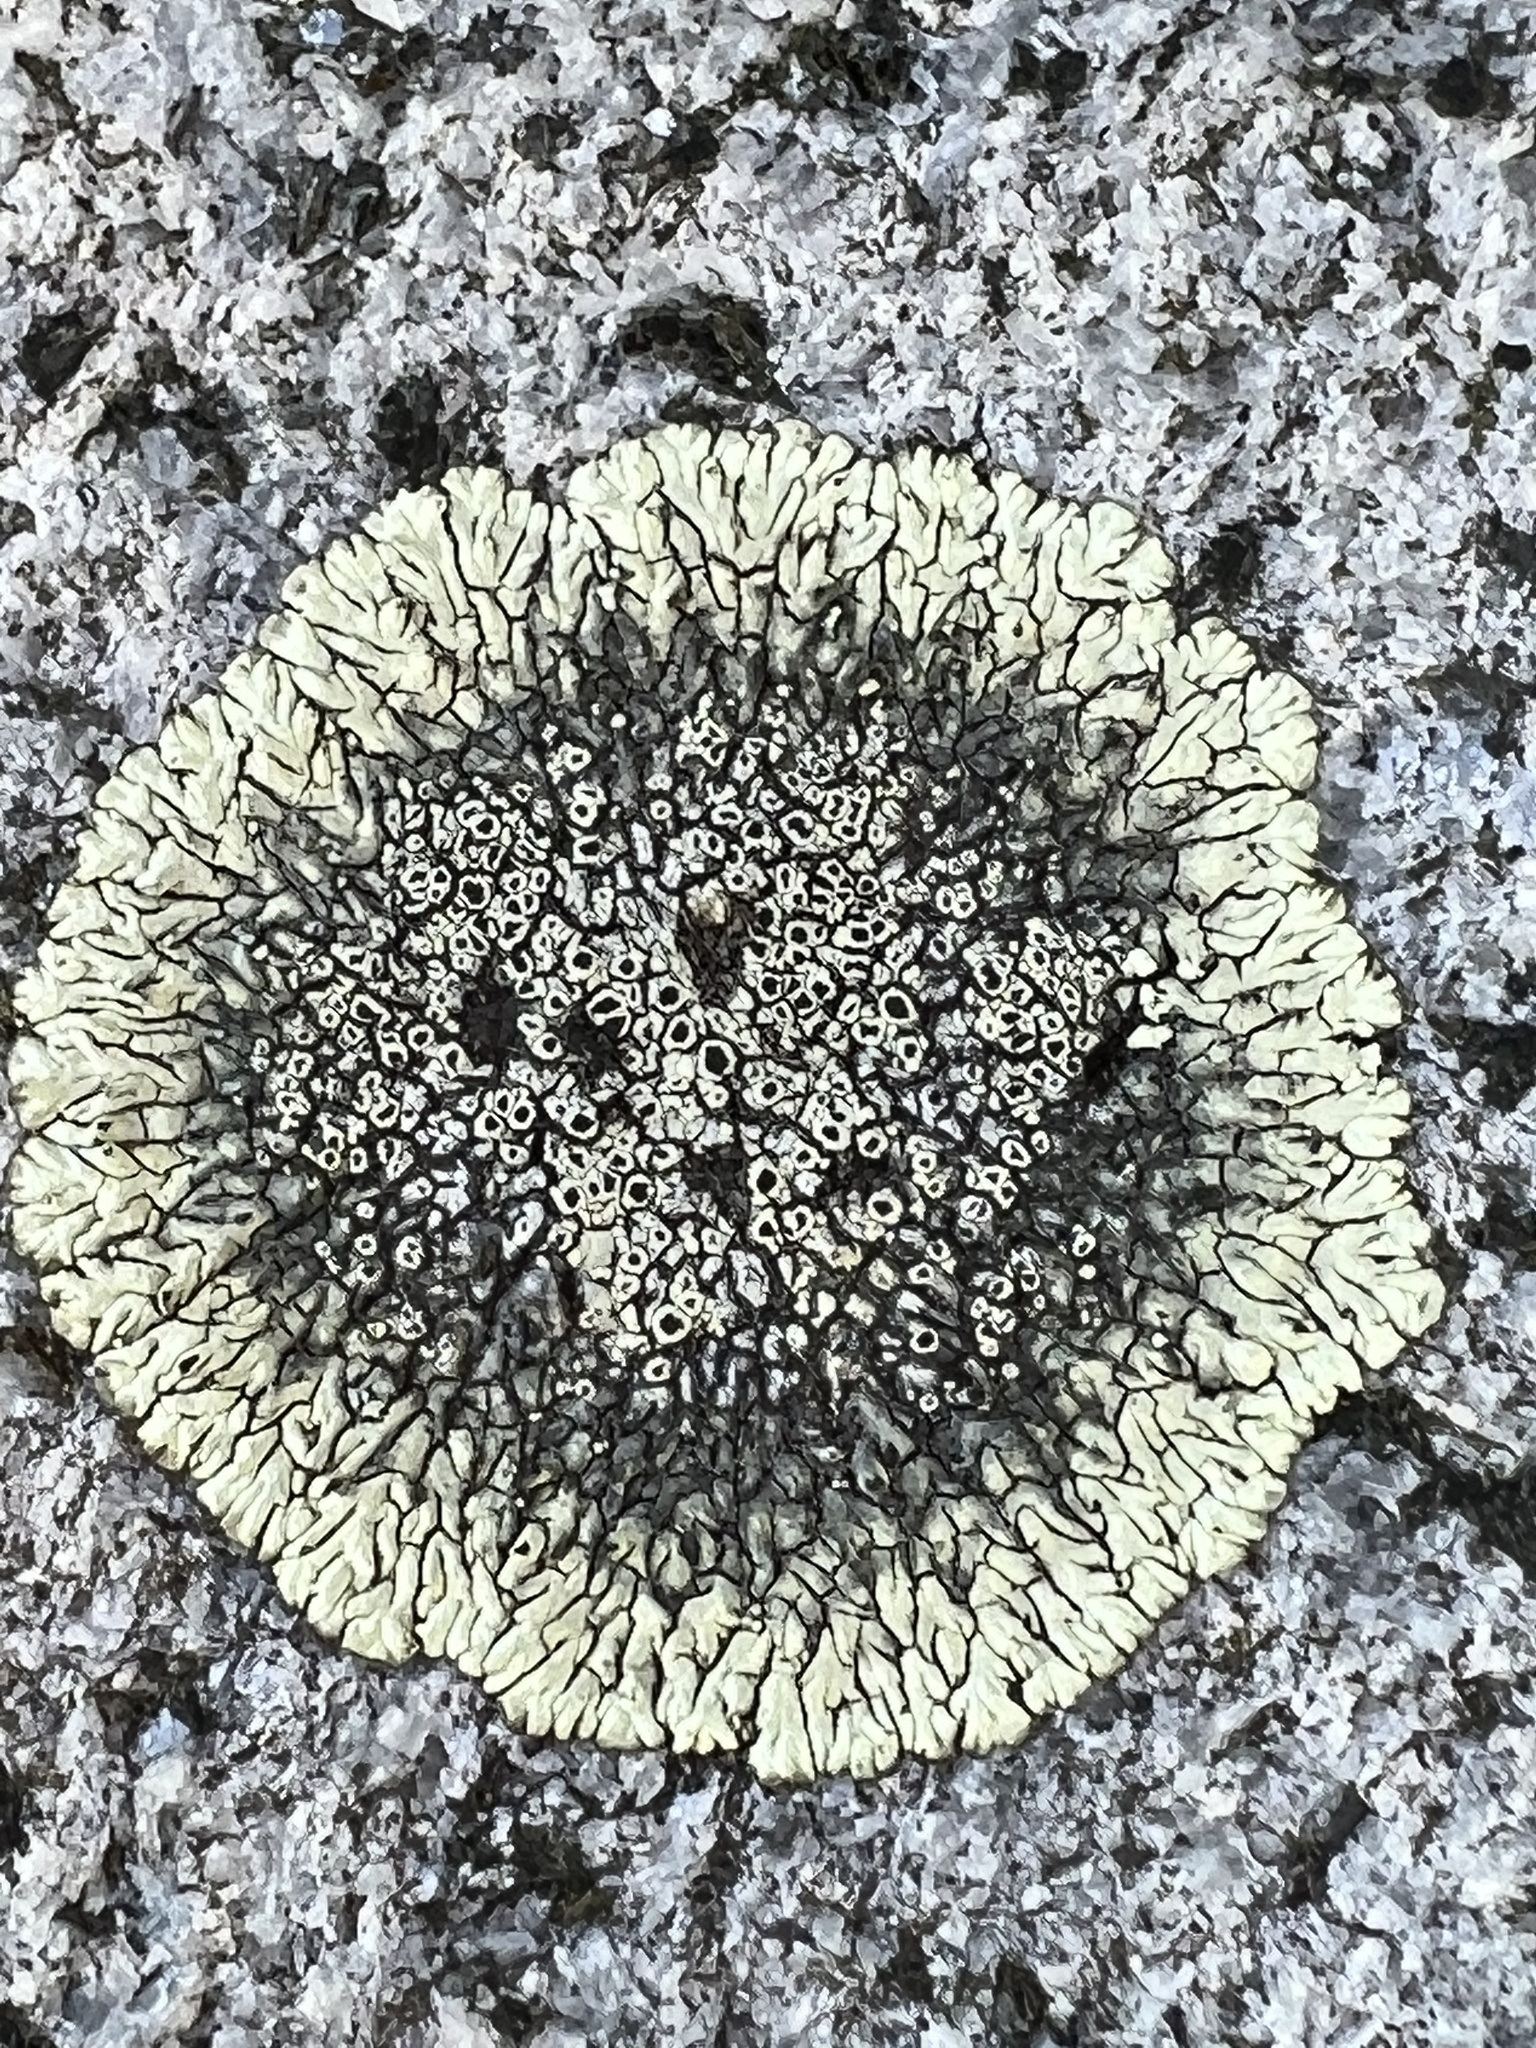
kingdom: Fungi
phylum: Ascomycota
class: Lecanoromycetes
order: Caliciales
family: Caliciaceae
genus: Dimelaena
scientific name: Dimelaena oreina
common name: Golden moonglow lichen
